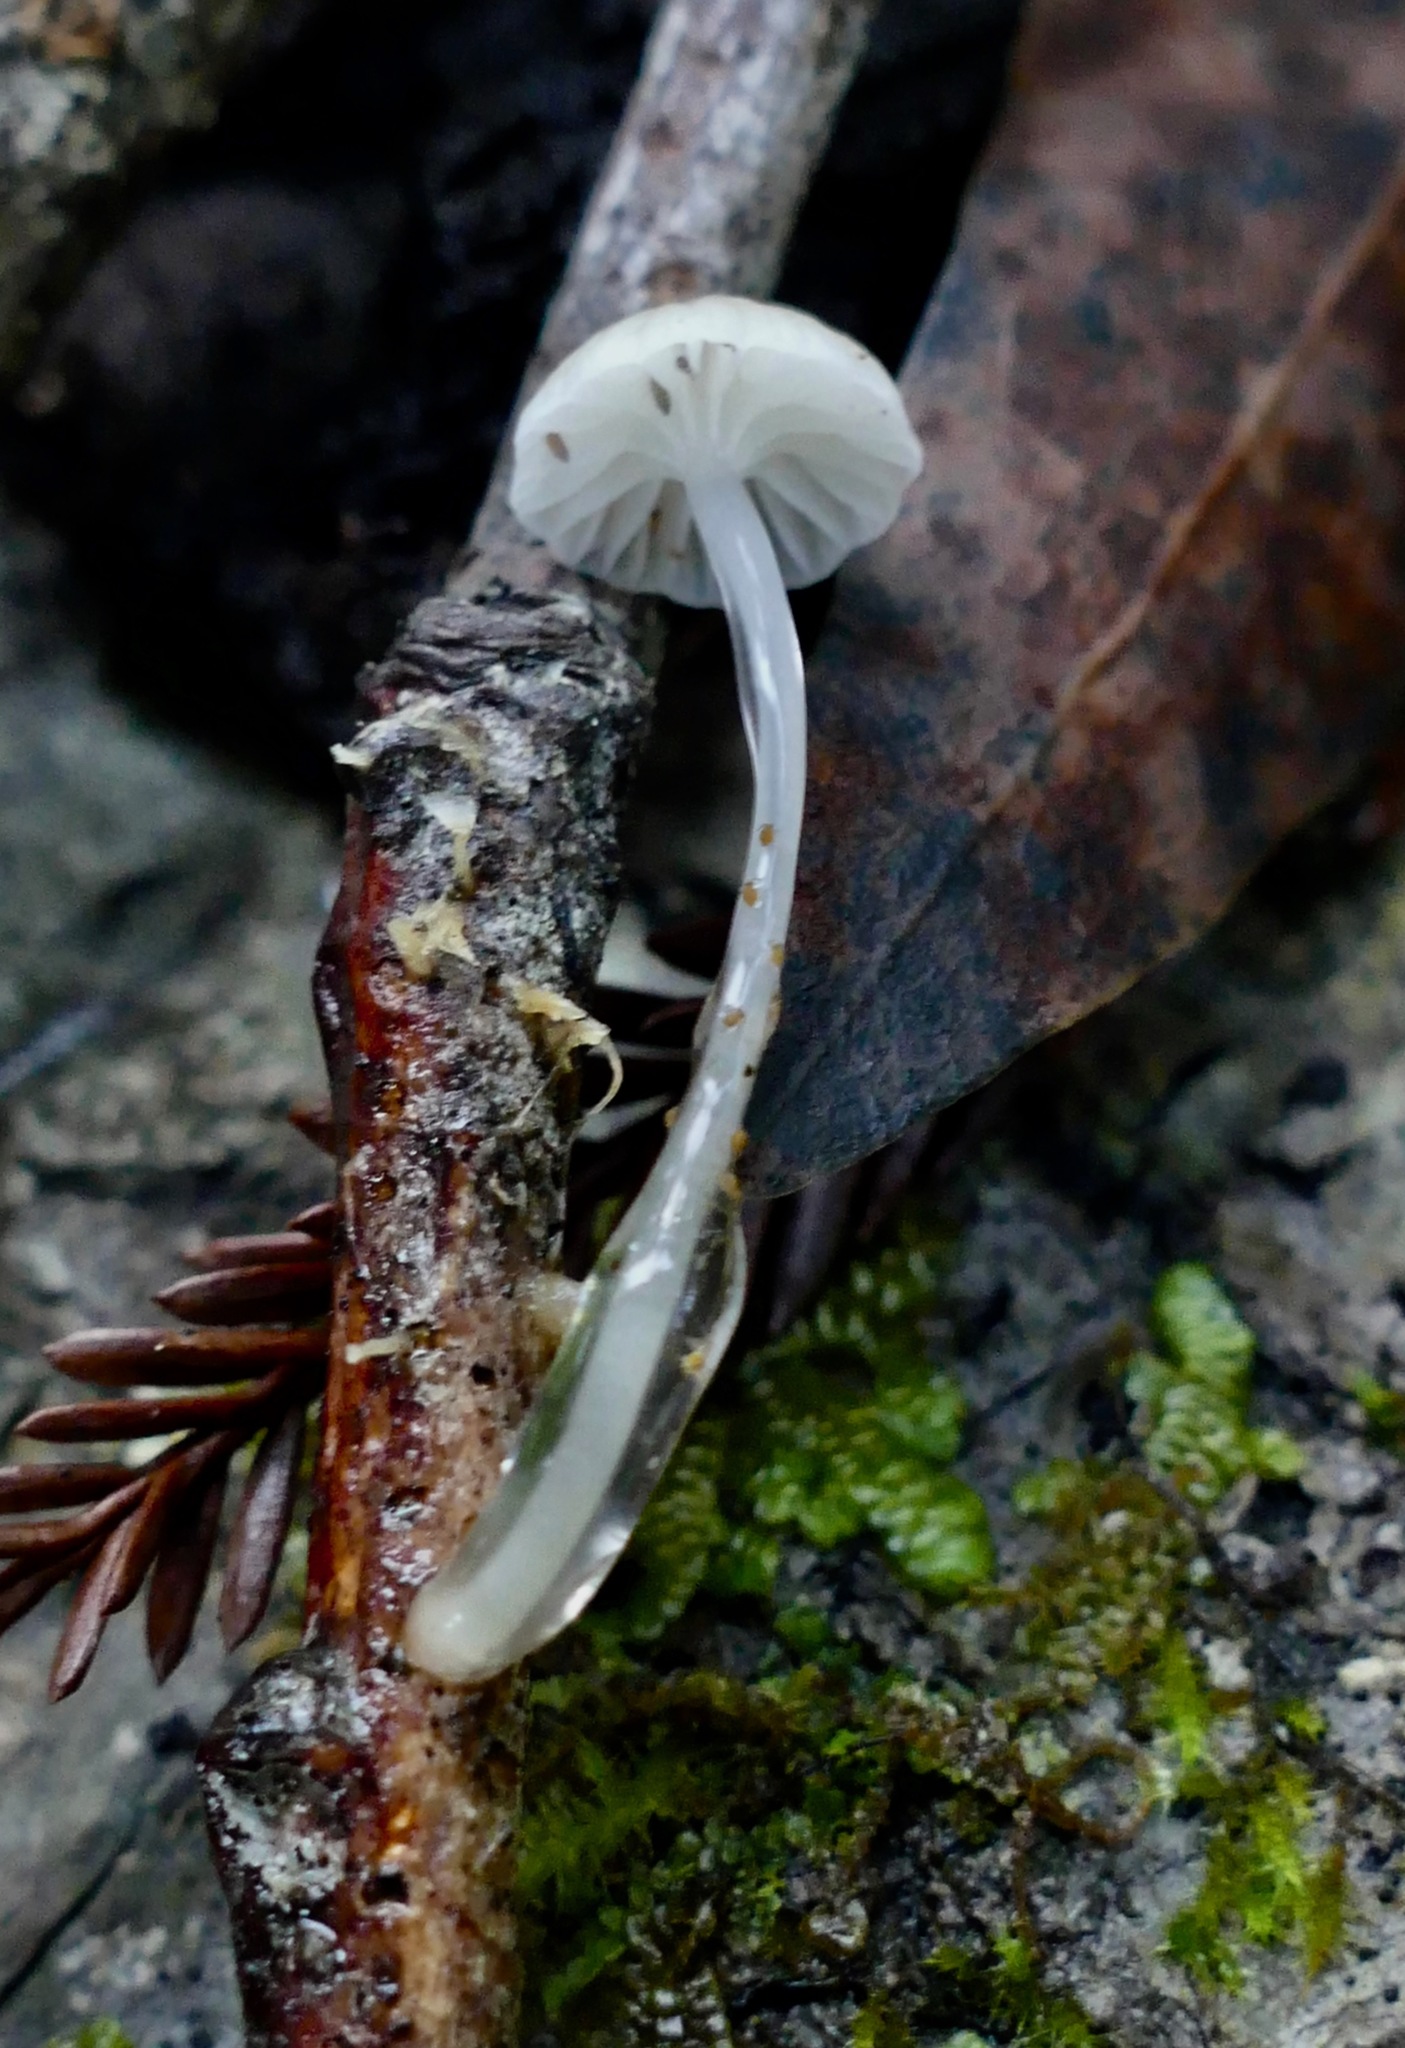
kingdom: Fungi
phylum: Basidiomycota
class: Agaricomycetes
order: Agaricales
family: Mycenaceae
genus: Roridomyces
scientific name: Roridomyces roridus
